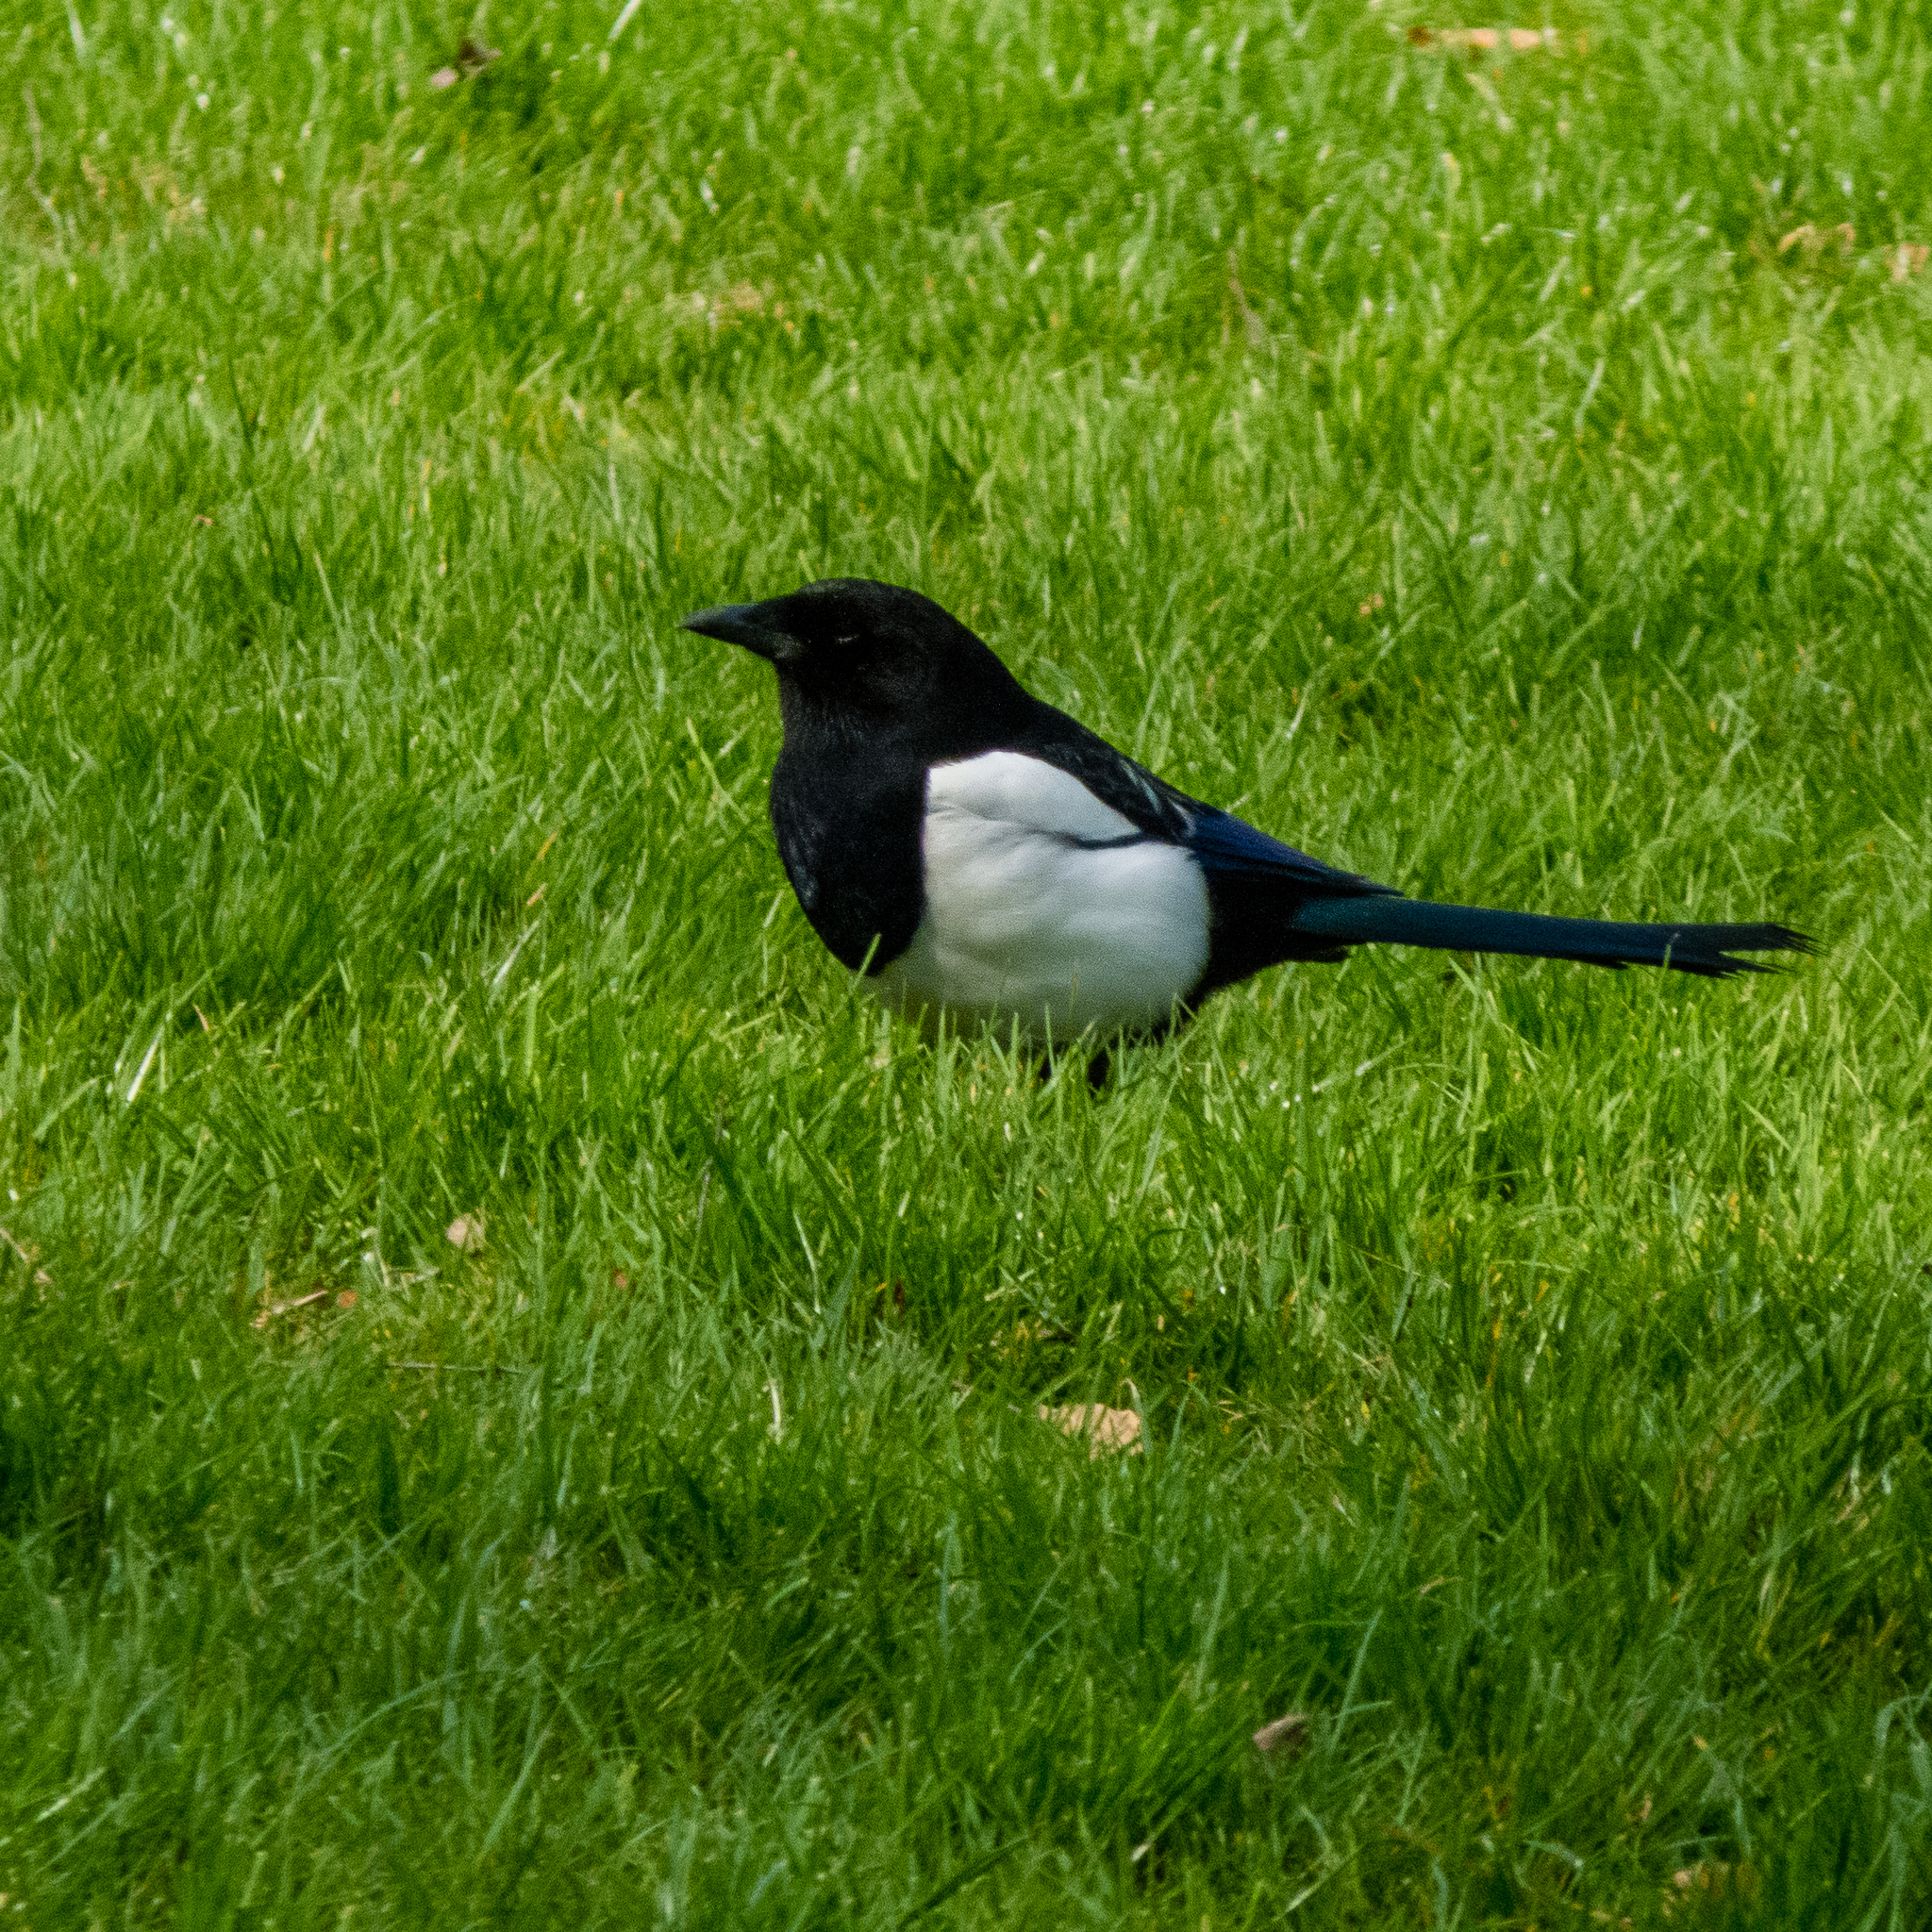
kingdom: Animalia
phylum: Chordata
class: Aves
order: Passeriformes
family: Corvidae
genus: Pica
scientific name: Pica pica
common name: Eurasian magpie
